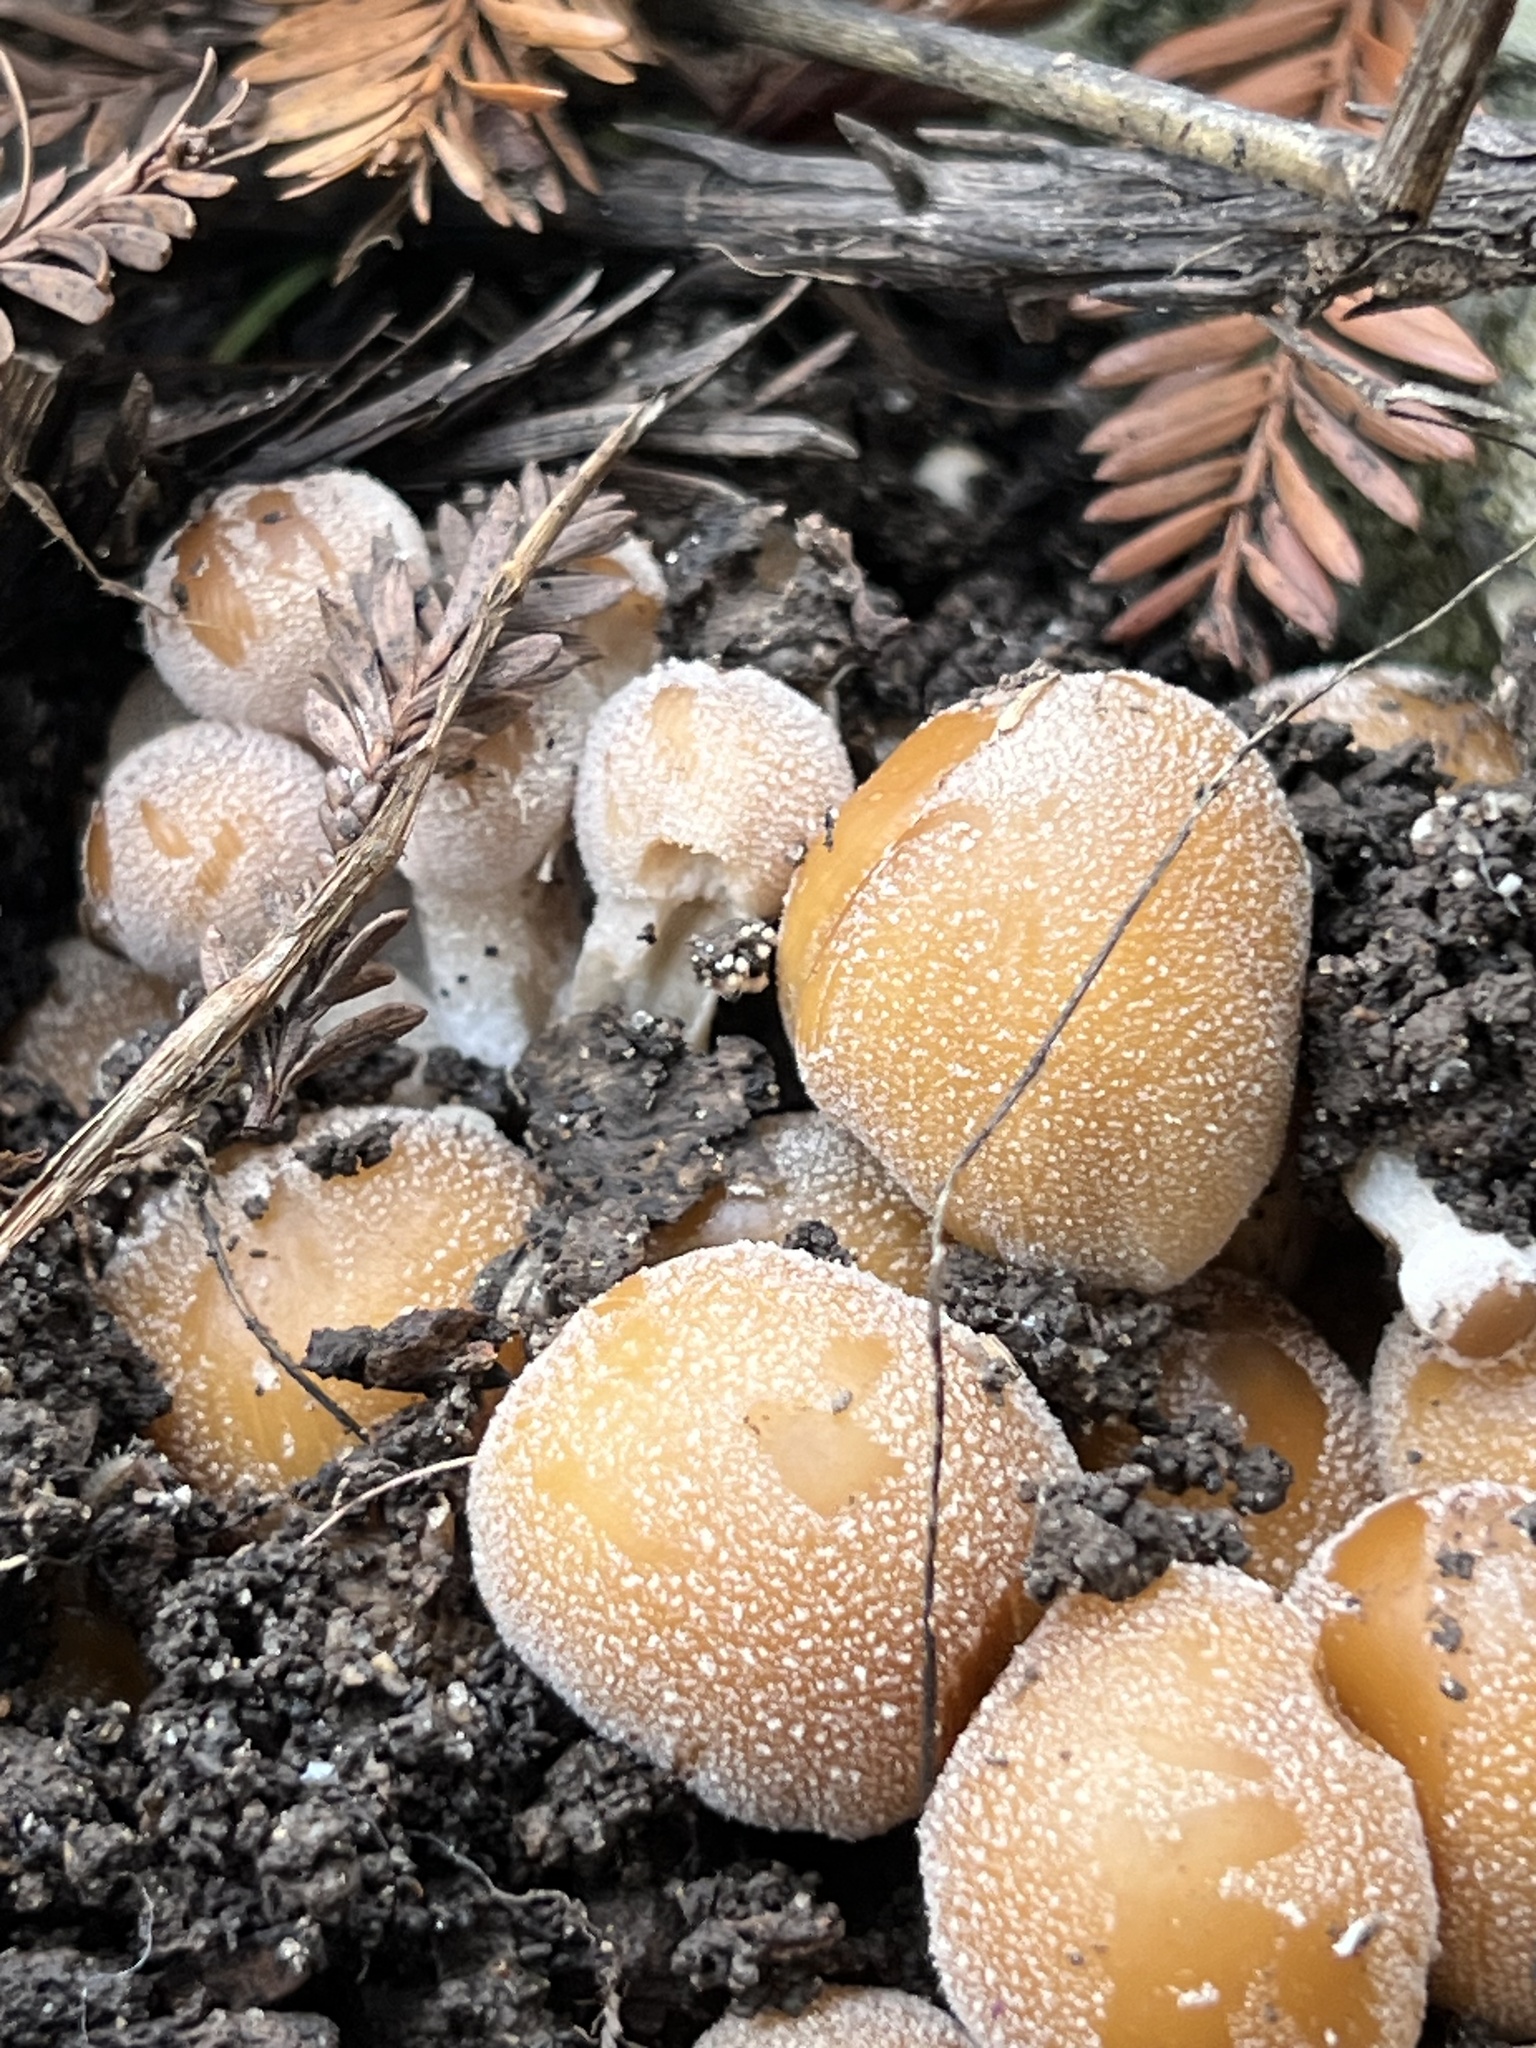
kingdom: Fungi
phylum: Basidiomycota
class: Agaricomycetes
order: Agaricales
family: Psathyrellaceae
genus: Coprinellus
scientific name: Coprinellus micaceus
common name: Glistening ink-cap
